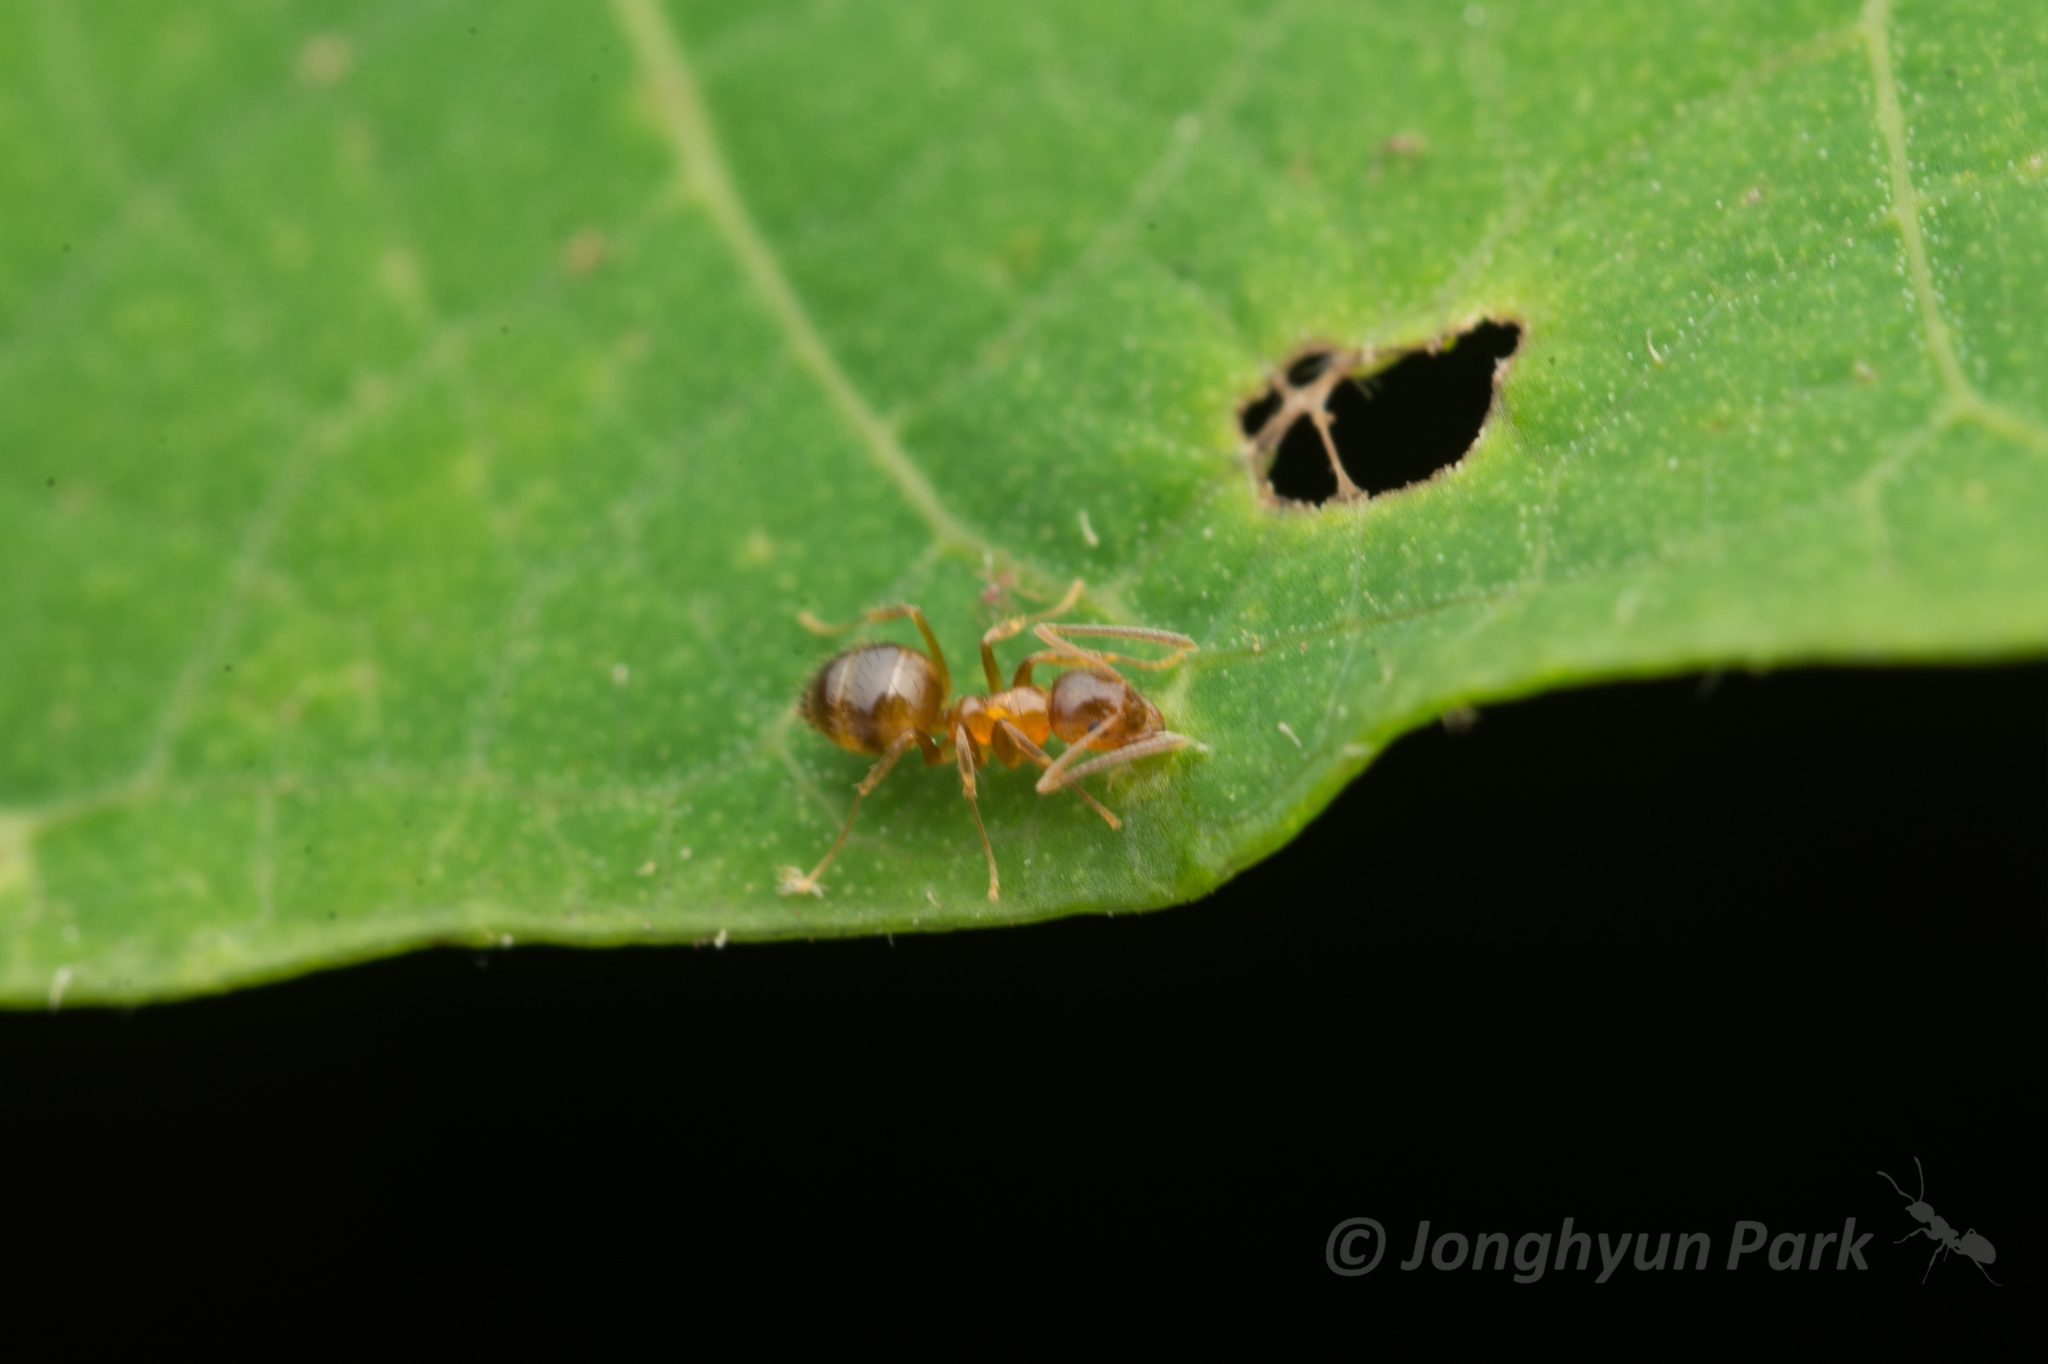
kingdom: Animalia
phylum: Arthropoda
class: Insecta
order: Hymenoptera
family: Formicidae
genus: Paratrechina
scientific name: Paratrechina flavipes
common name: Eastern asian formicine ant
